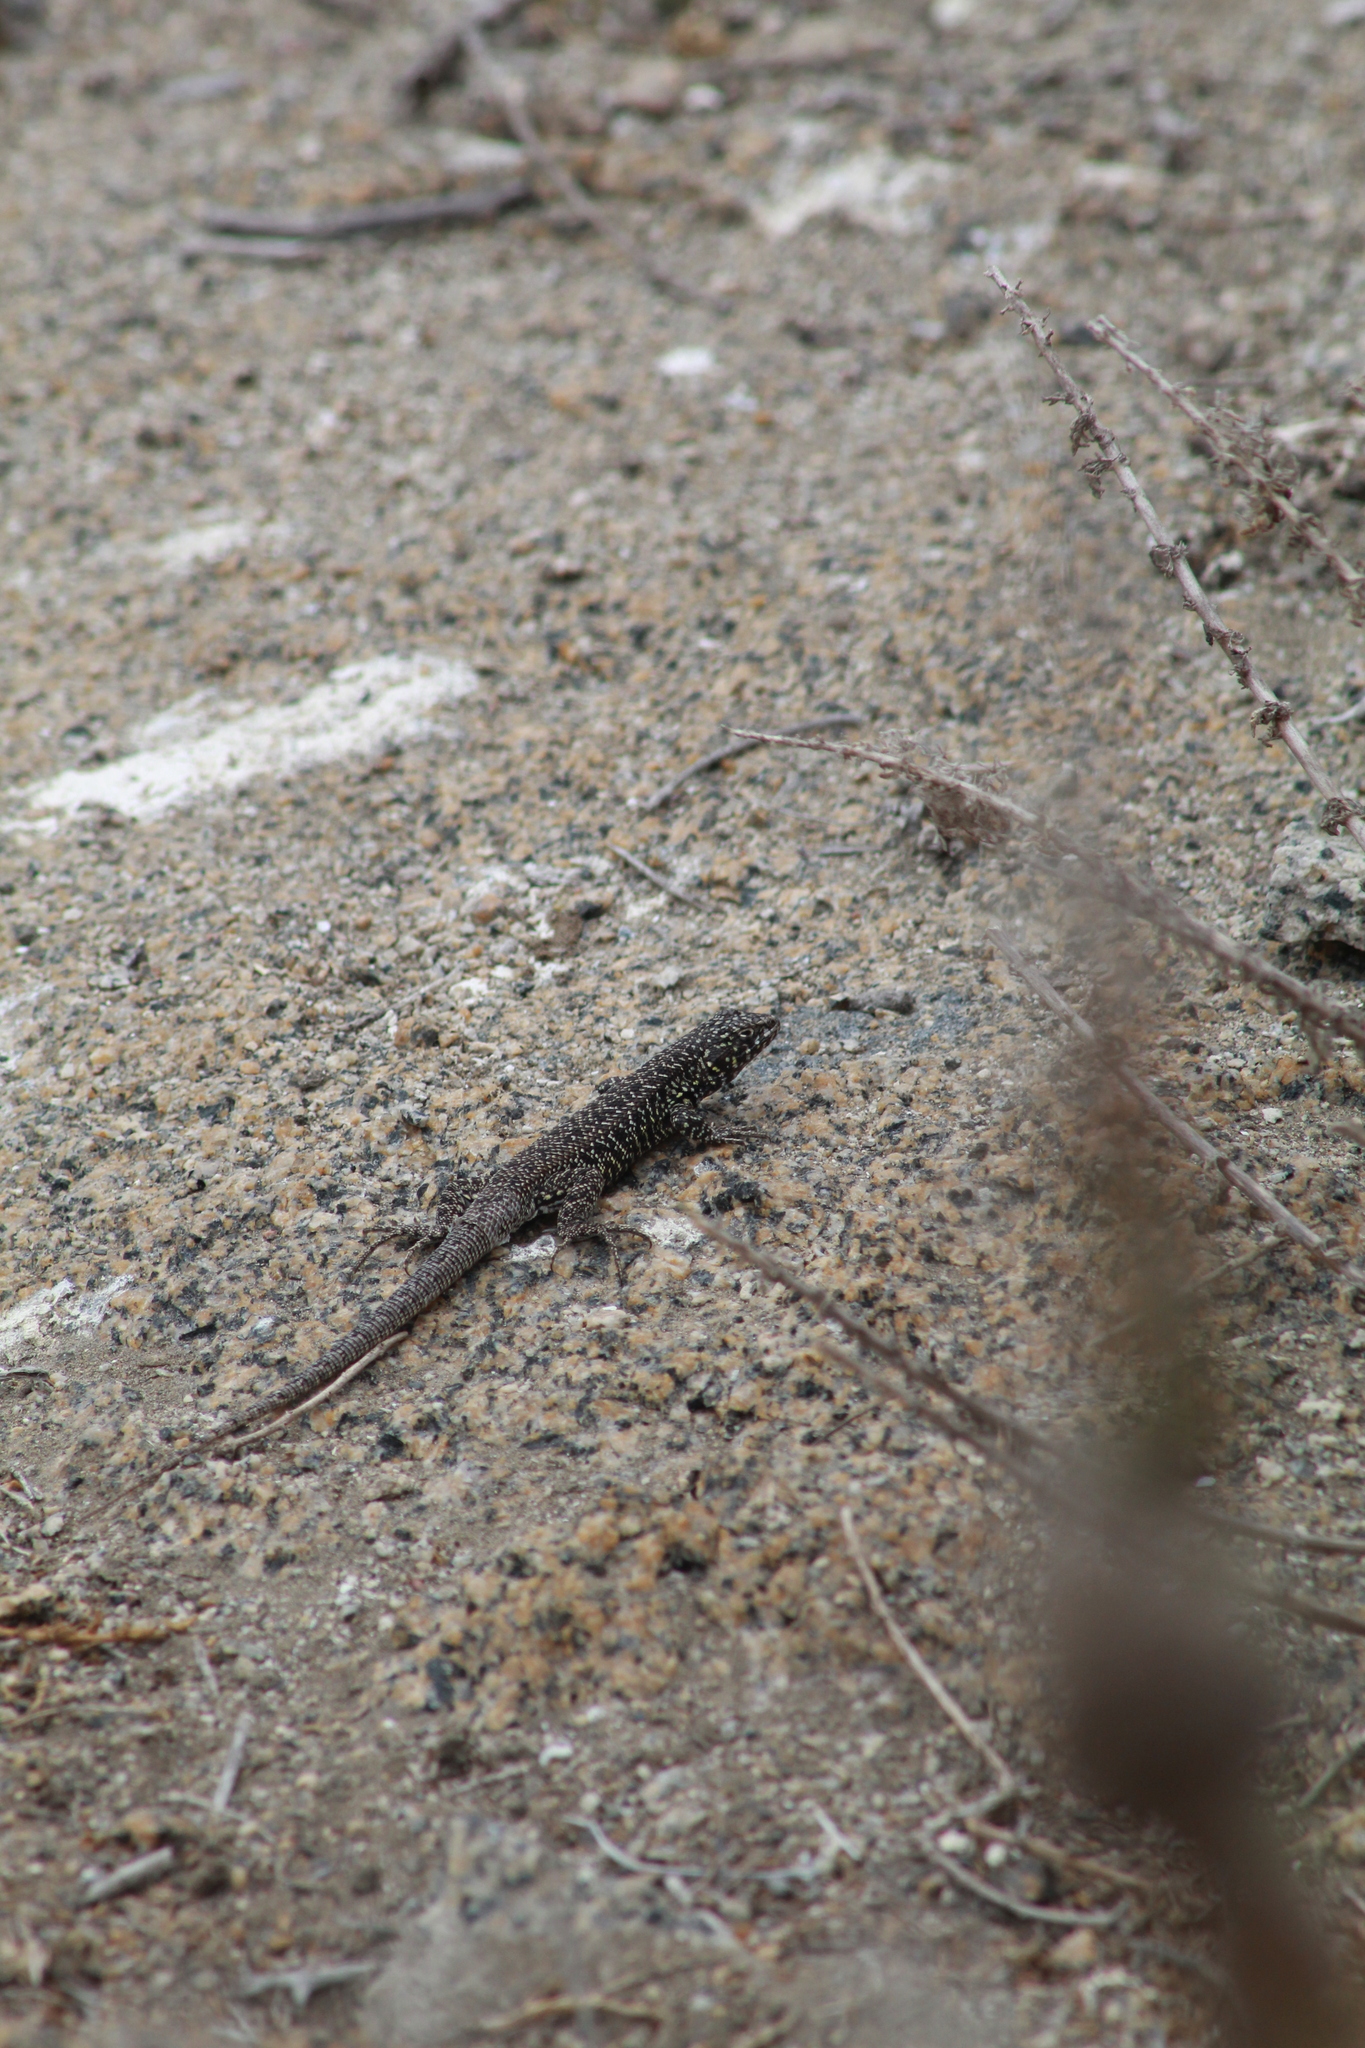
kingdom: Animalia
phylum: Chordata
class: Squamata
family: Liolaemidae
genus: Liolaemus
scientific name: Liolaemus silvai
